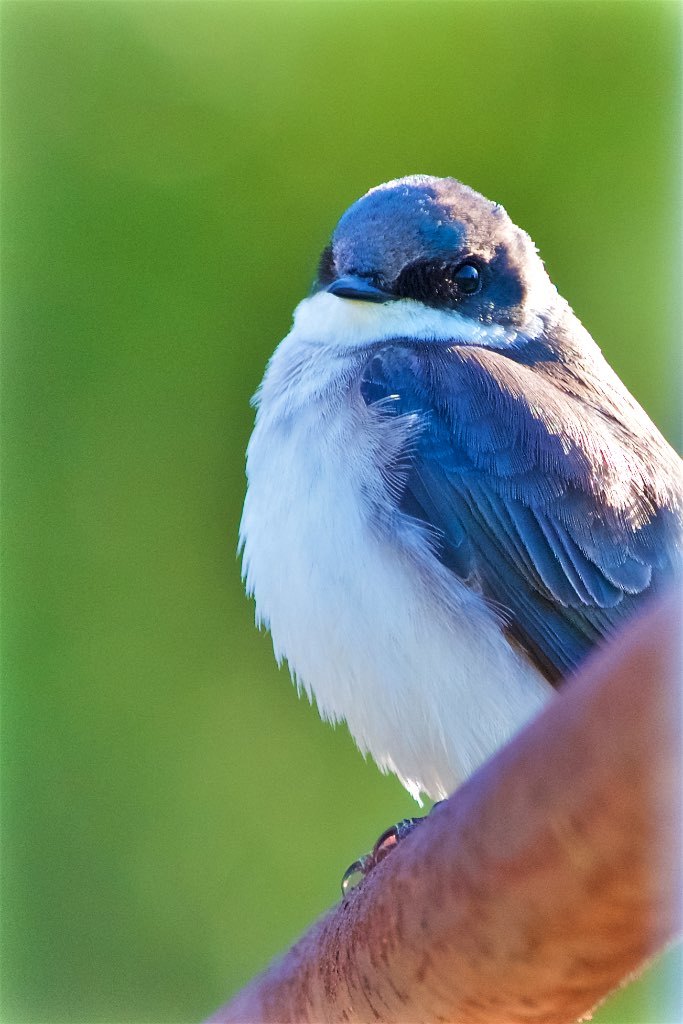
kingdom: Animalia
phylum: Chordata
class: Aves
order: Passeriformes
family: Hirundinidae
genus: Tachycineta
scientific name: Tachycineta bicolor
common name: Tree swallow
